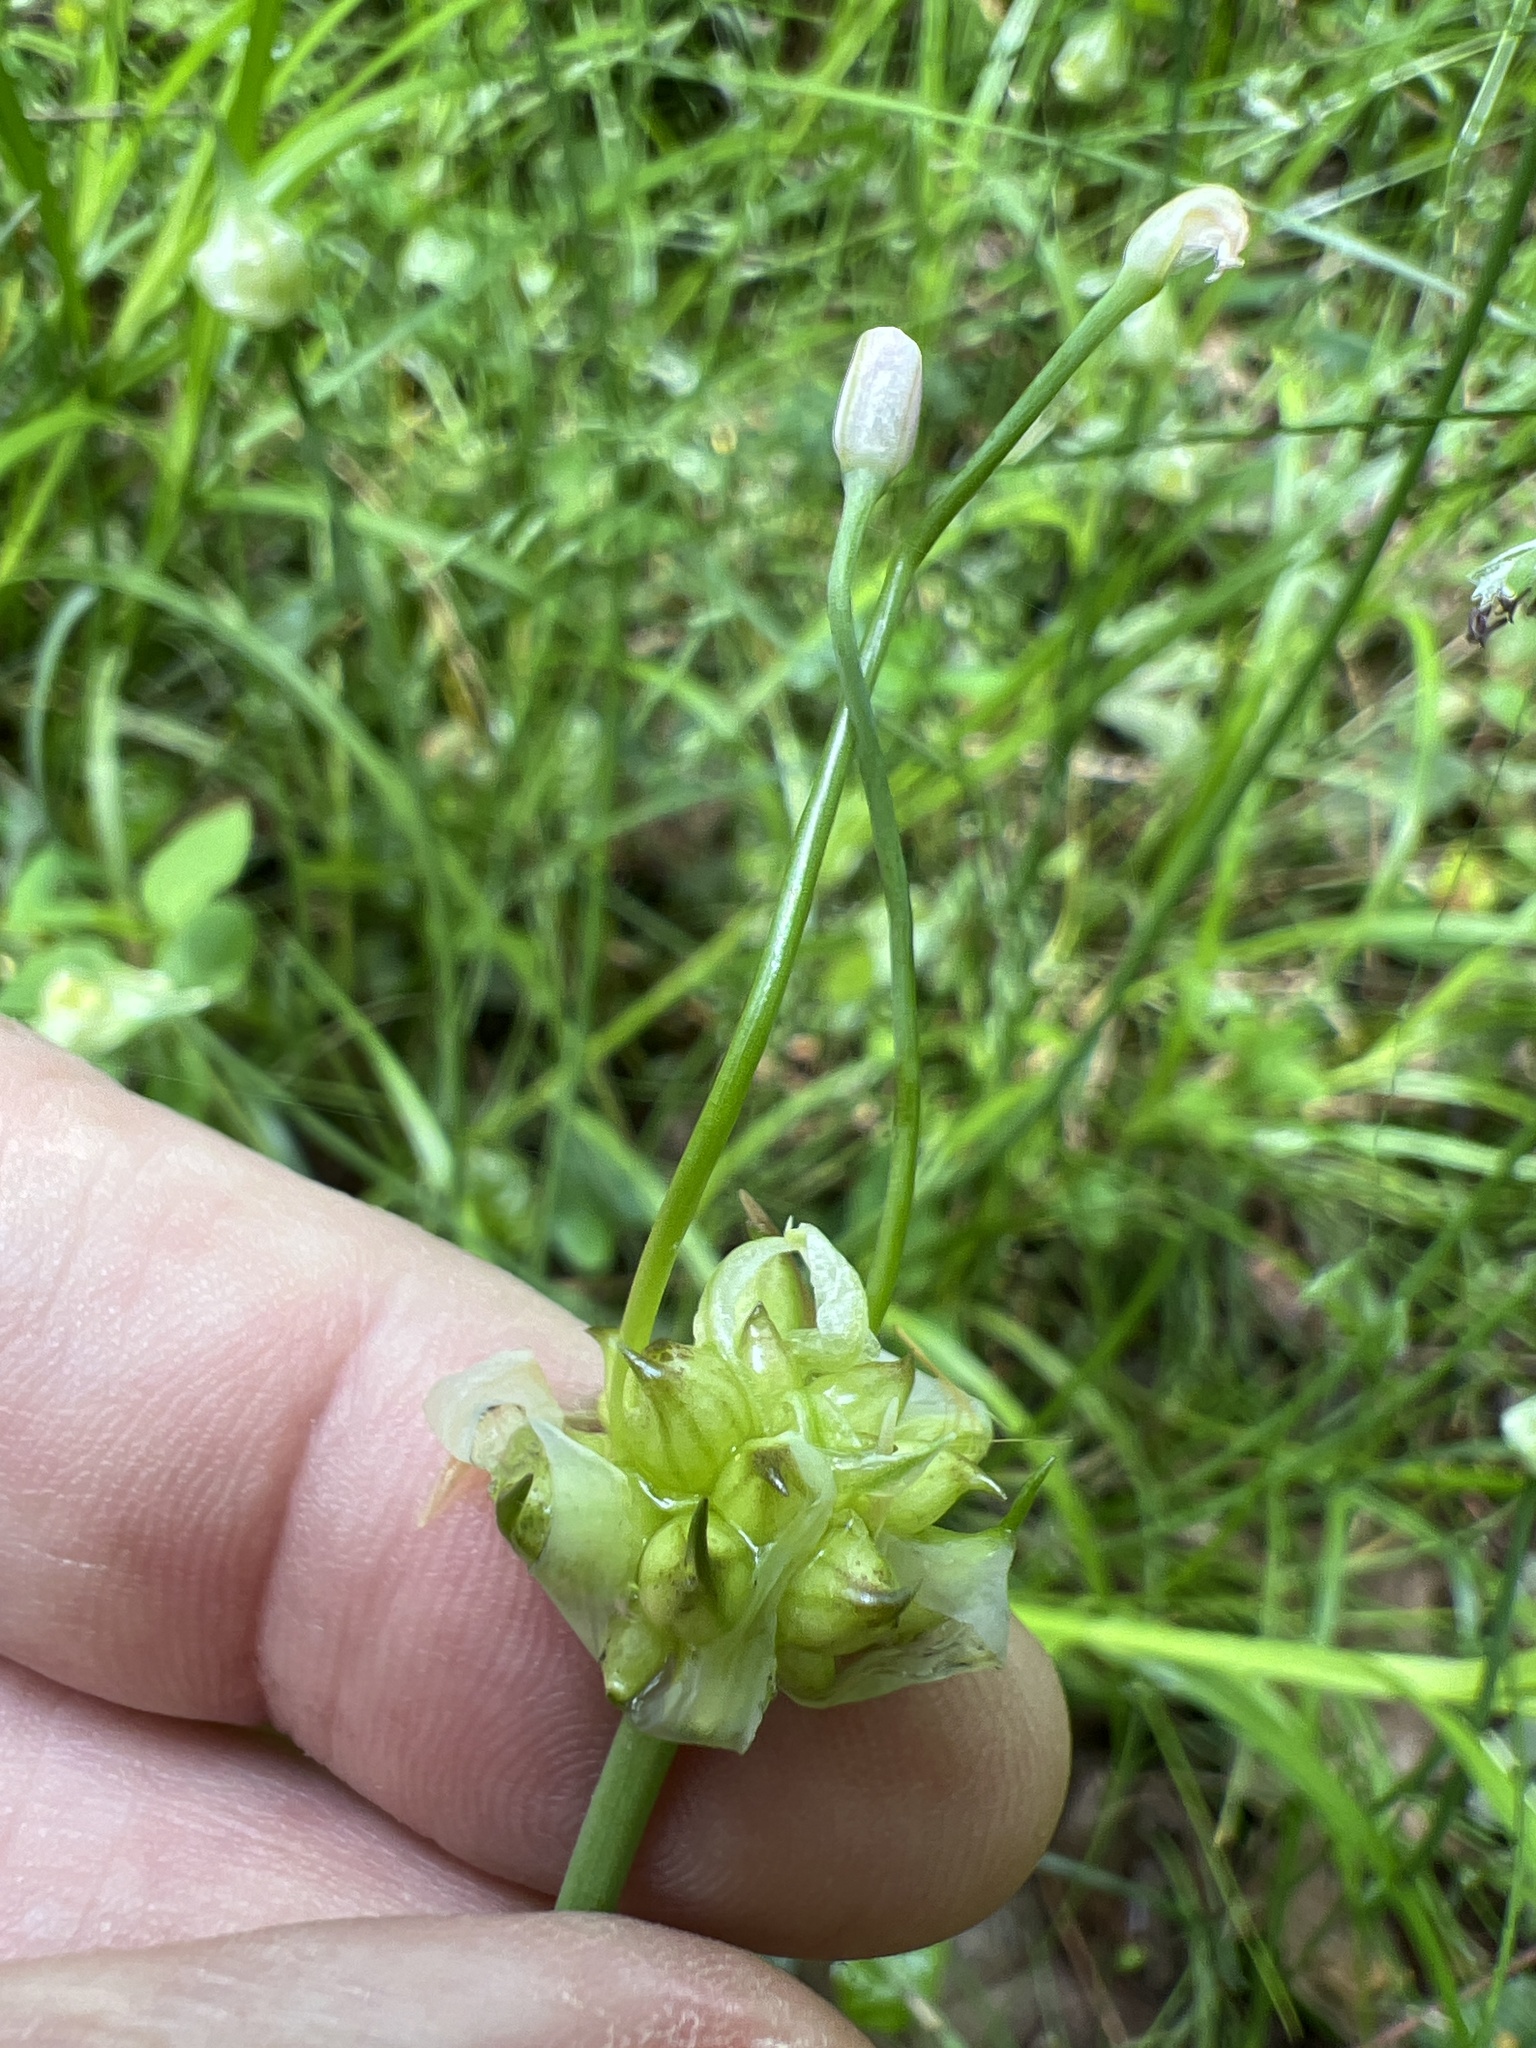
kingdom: Plantae
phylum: Tracheophyta
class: Liliopsida
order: Asparagales
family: Amaryllidaceae
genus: Allium
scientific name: Allium canadense
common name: Meadow garlic
